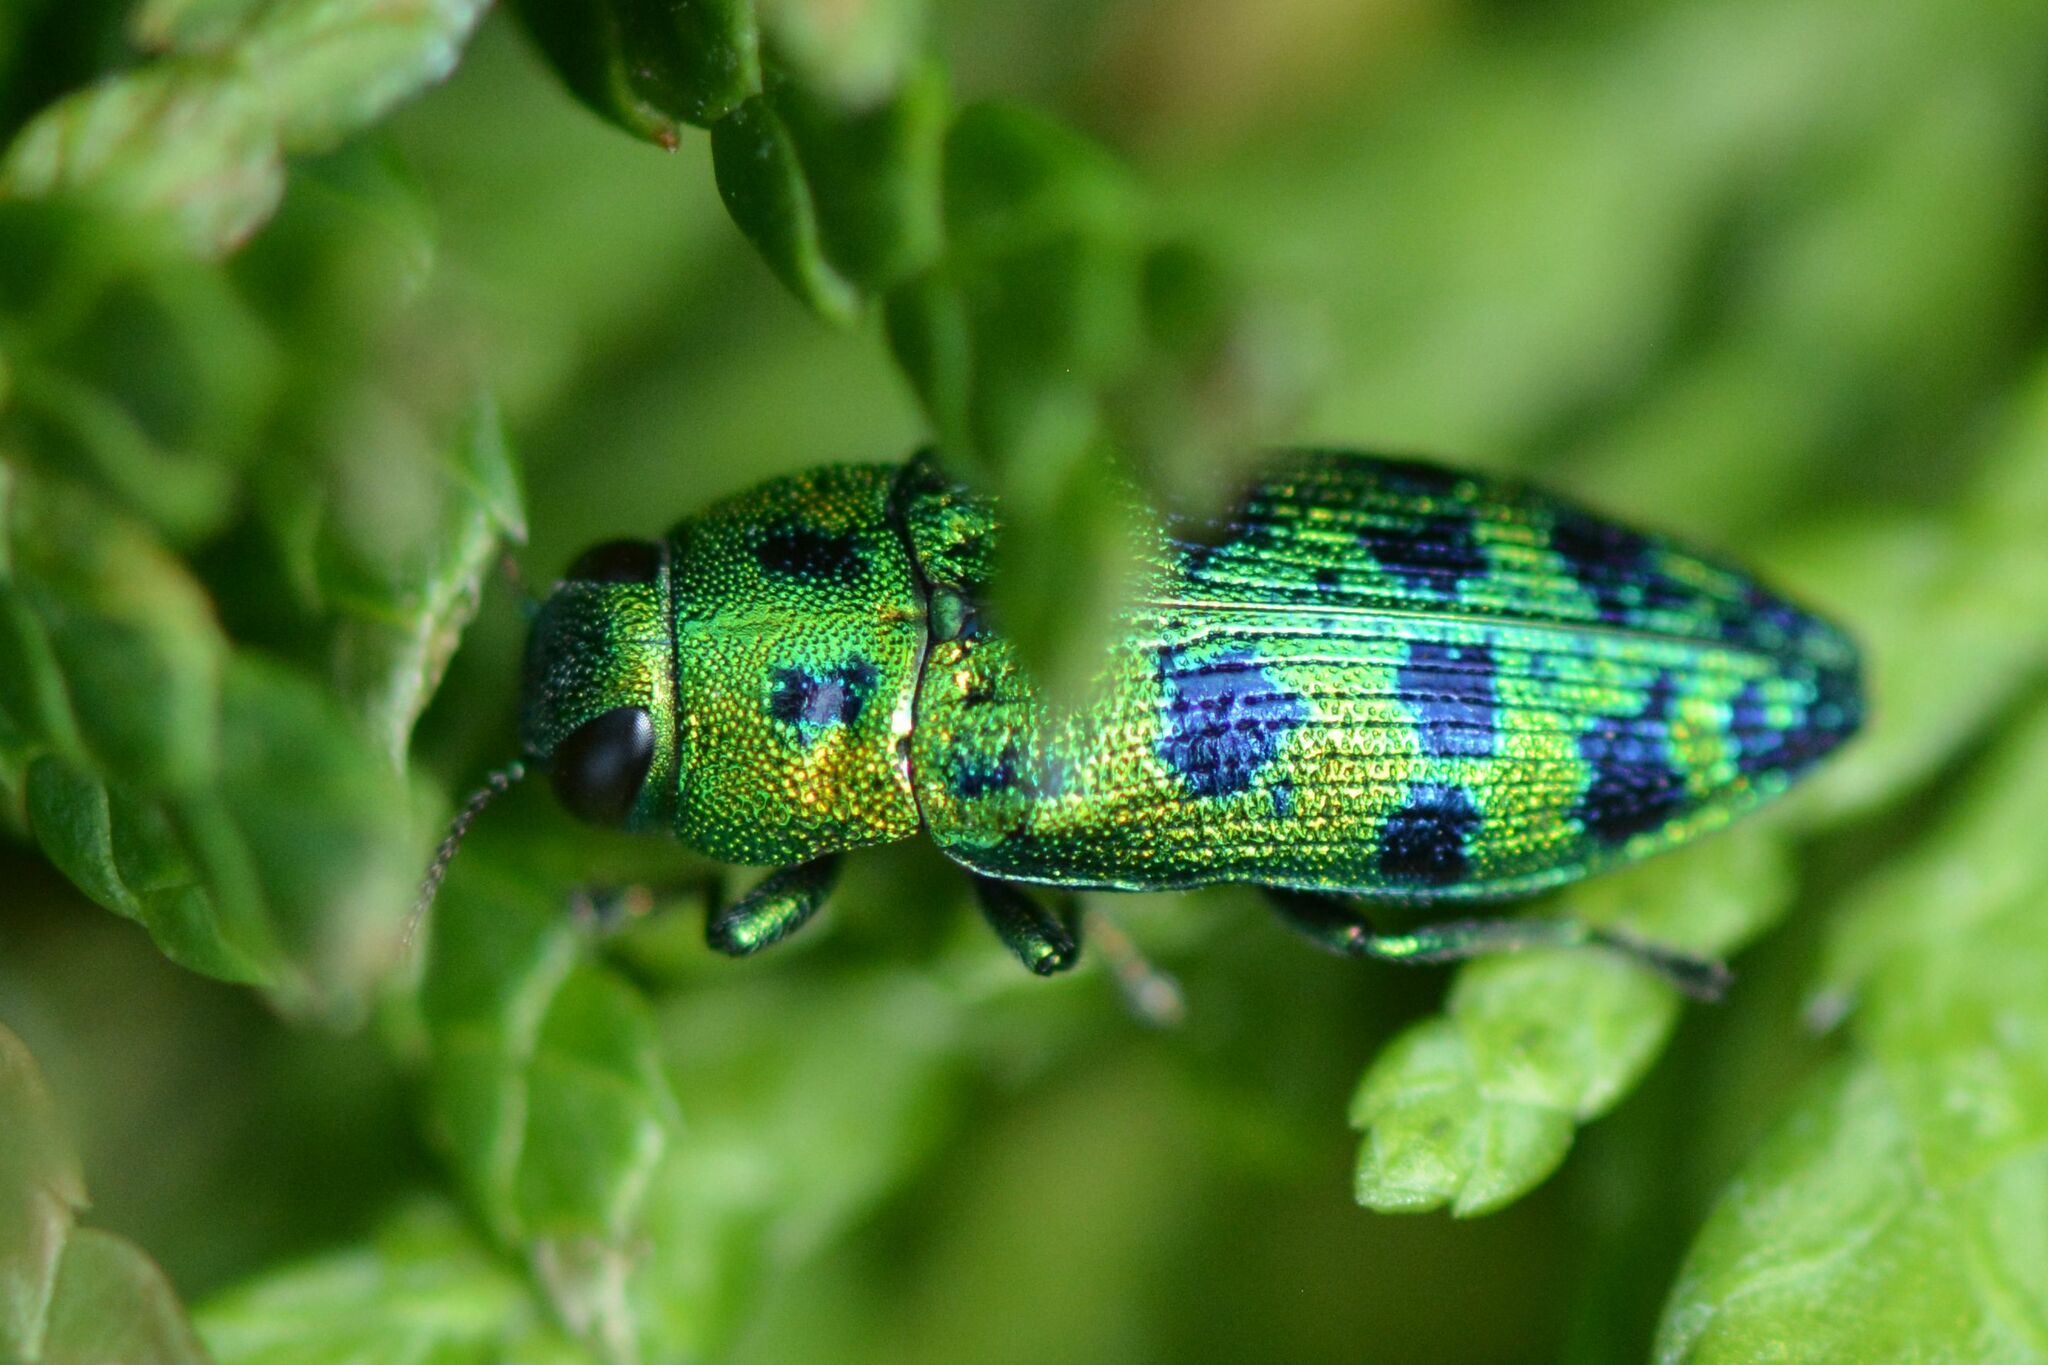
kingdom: Animalia
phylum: Arthropoda
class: Insecta
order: Coleoptera
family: Buprestidae
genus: Lamprodila
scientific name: Lamprodila festiva
